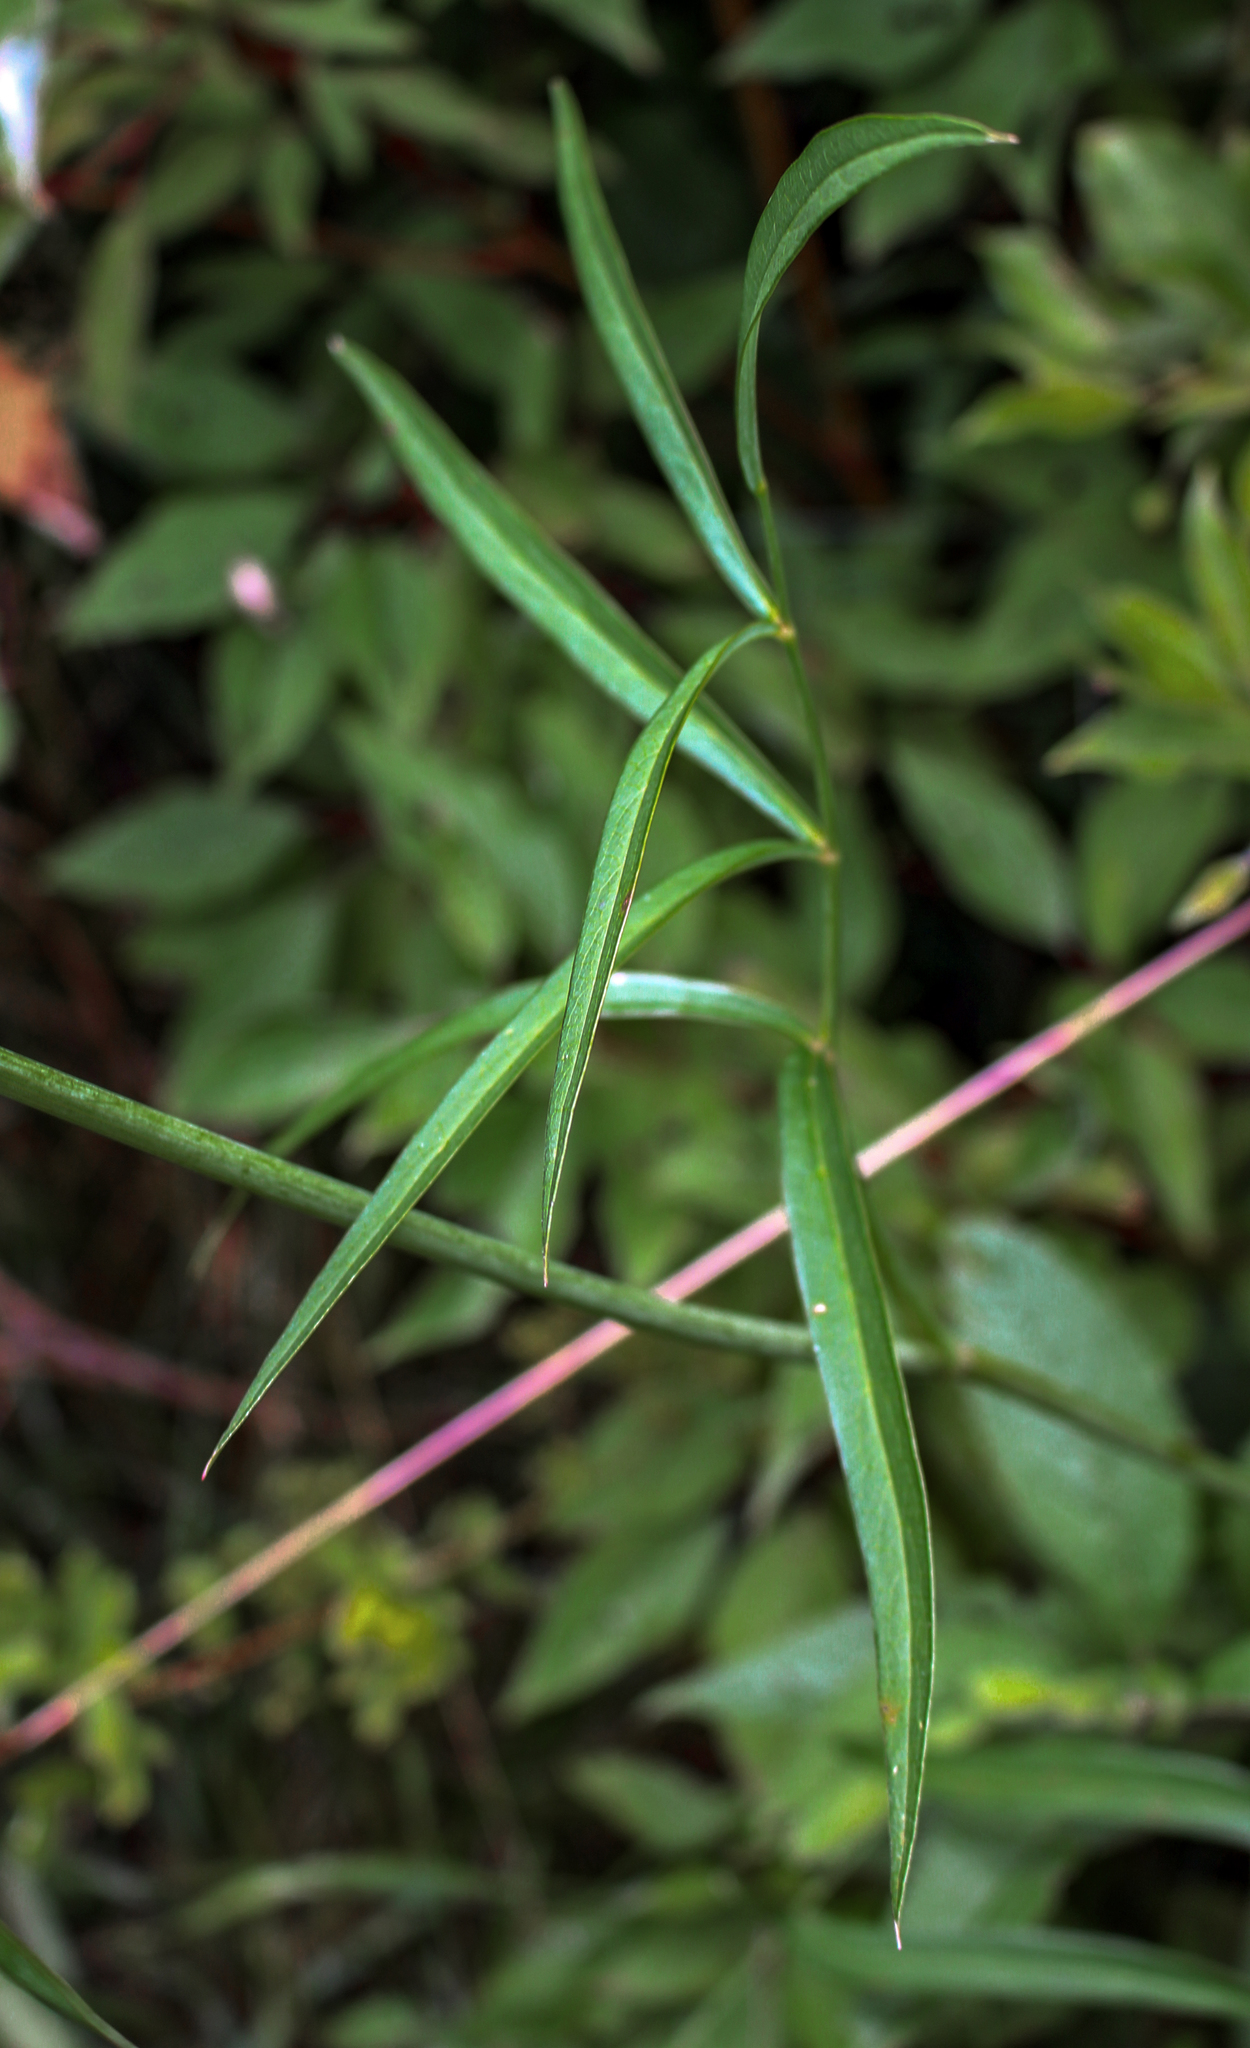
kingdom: Plantae
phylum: Tracheophyta
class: Magnoliopsida
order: Apiales
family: Apiaceae
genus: Oxypolis
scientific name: Oxypolis rigidior
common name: Cowbane
